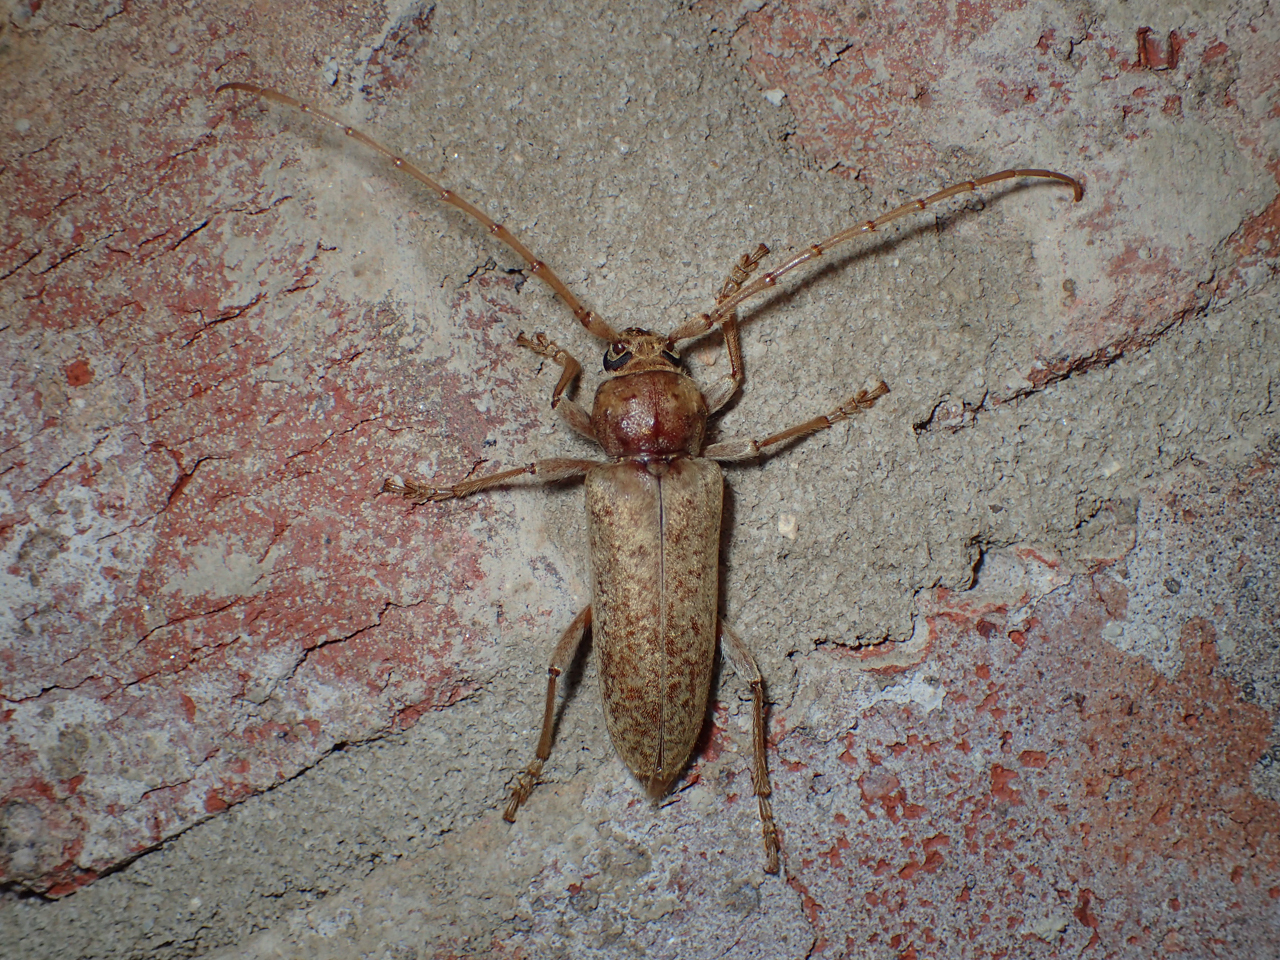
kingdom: Animalia
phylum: Arthropoda
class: Insecta
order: Coleoptera
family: Cerambycidae
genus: Enaphalodes
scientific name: Enaphalodes rufulus
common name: Red oak borer
